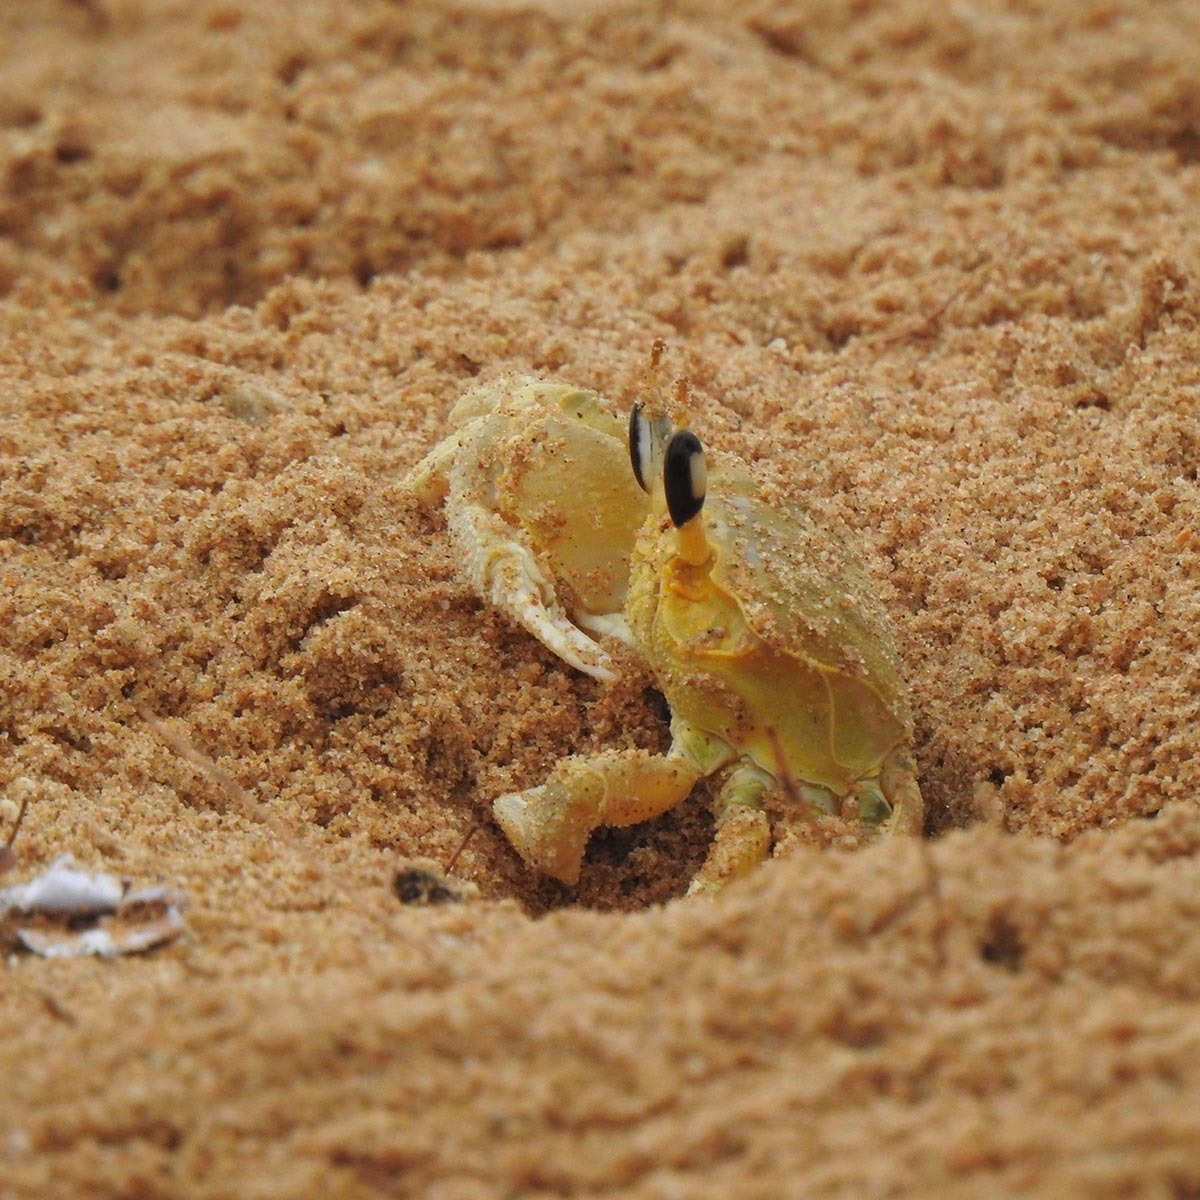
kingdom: Animalia
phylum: Arthropoda
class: Malacostraca
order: Decapoda
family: Ocypodidae
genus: Ocypode
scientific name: Ocypode brevicornis
